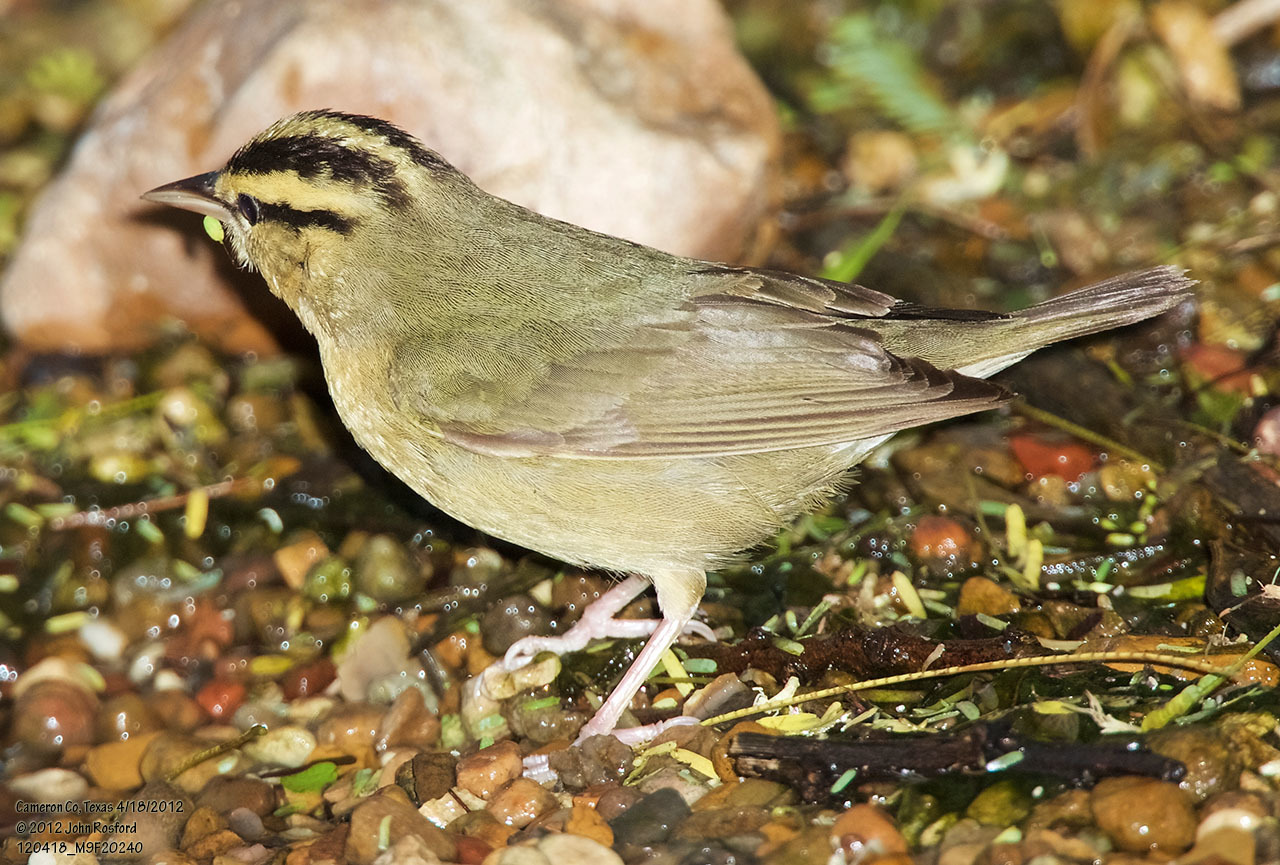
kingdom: Animalia
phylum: Chordata
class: Aves
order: Passeriformes
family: Parulidae
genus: Helmitheros
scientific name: Helmitheros vermivorum
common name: Worm-eating warbler
